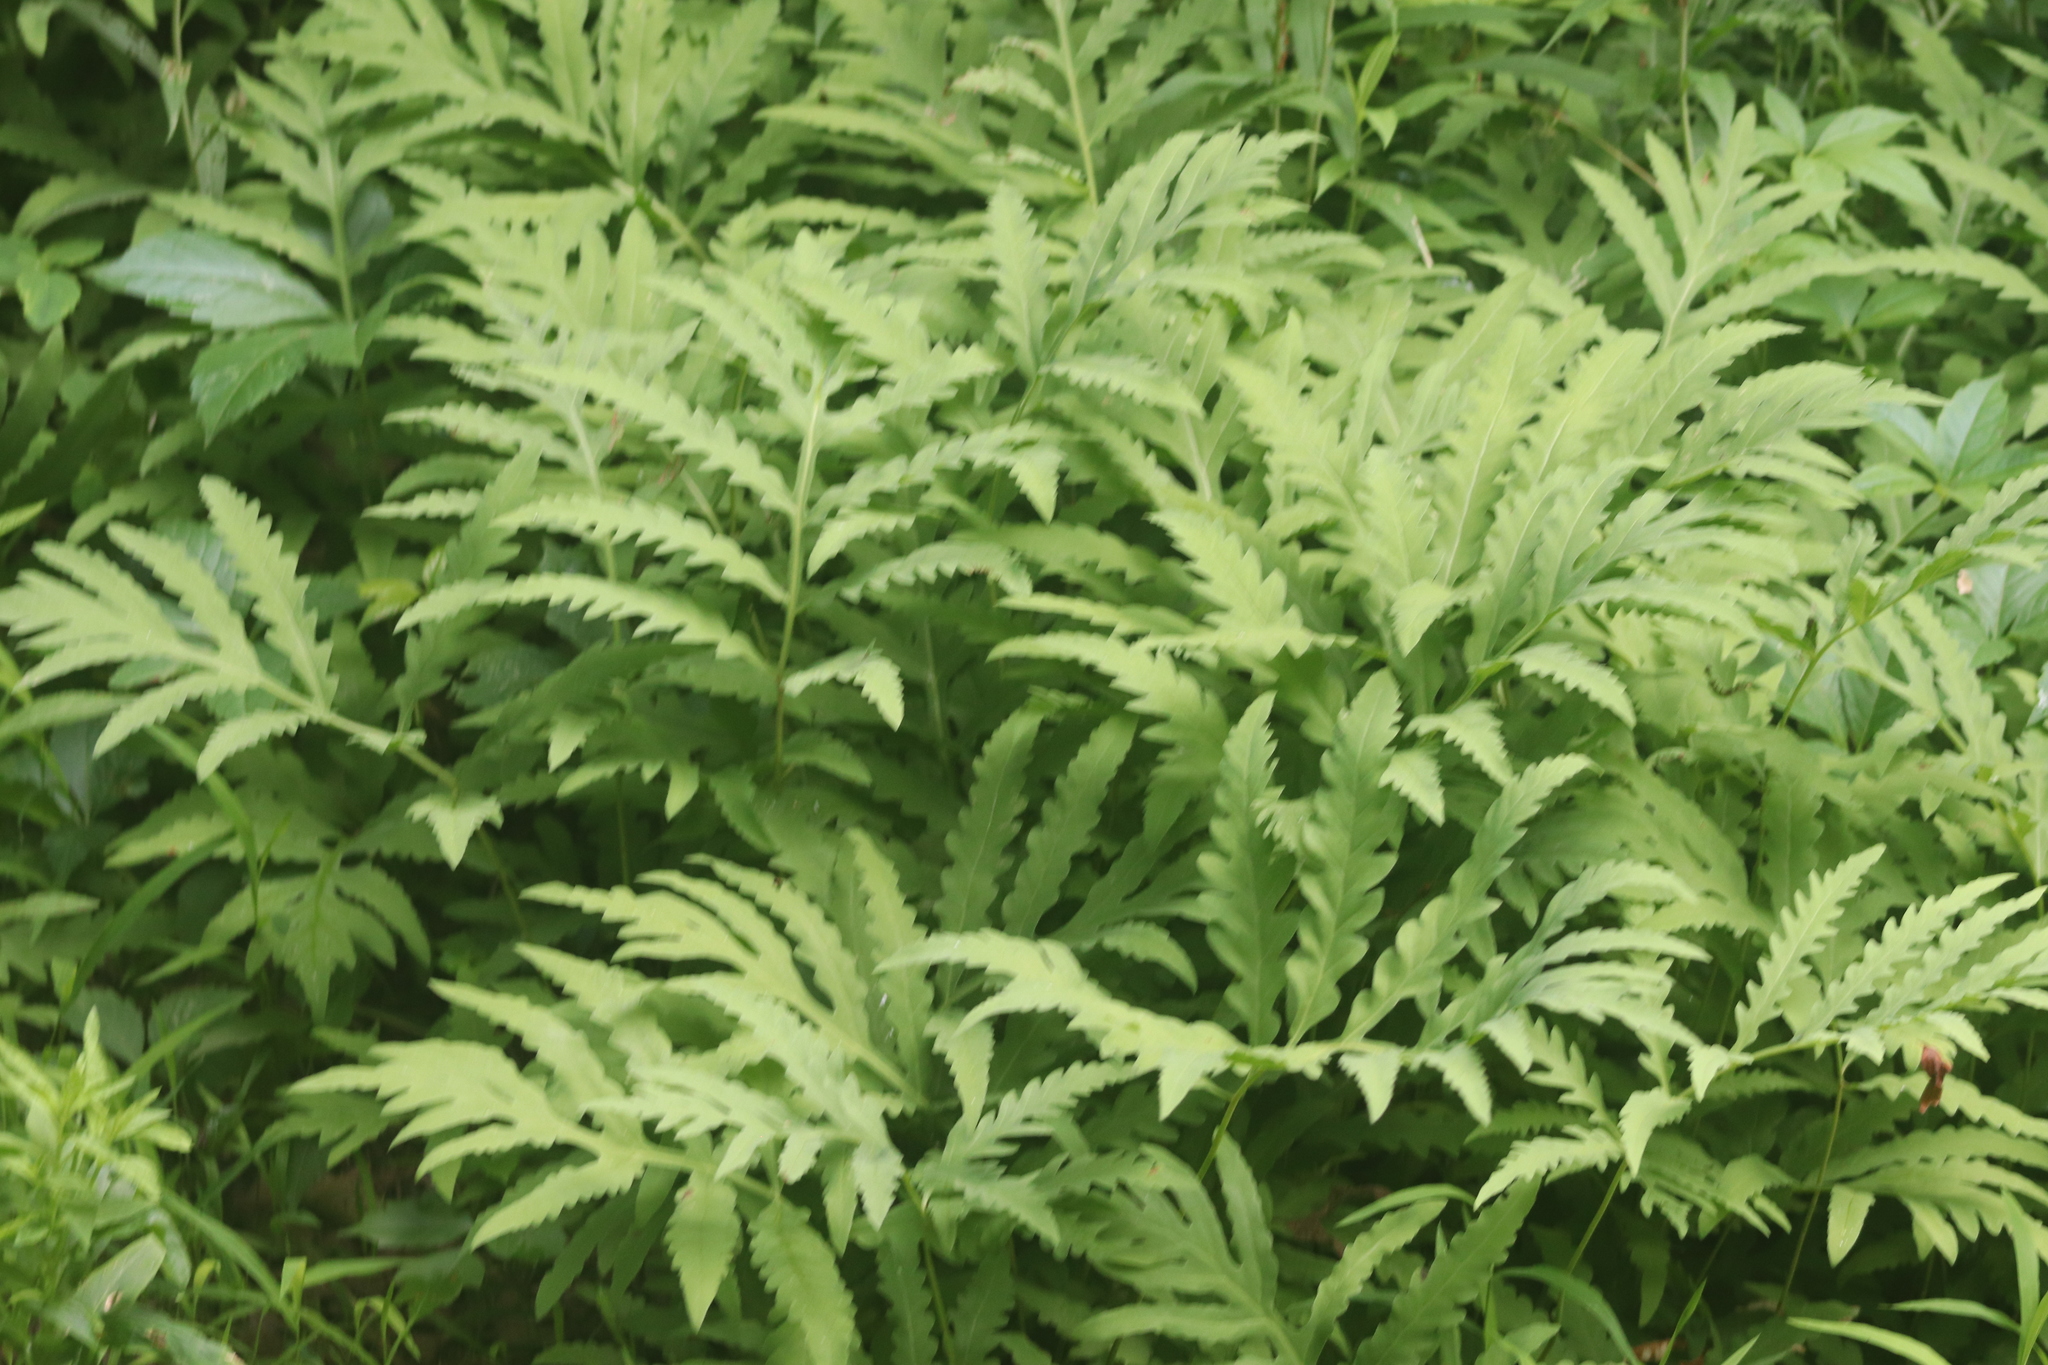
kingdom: Plantae
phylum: Tracheophyta
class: Polypodiopsida
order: Polypodiales
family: Onocleaceae
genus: Onoclea
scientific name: Onoclea sensibilis
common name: Sensitive fern
